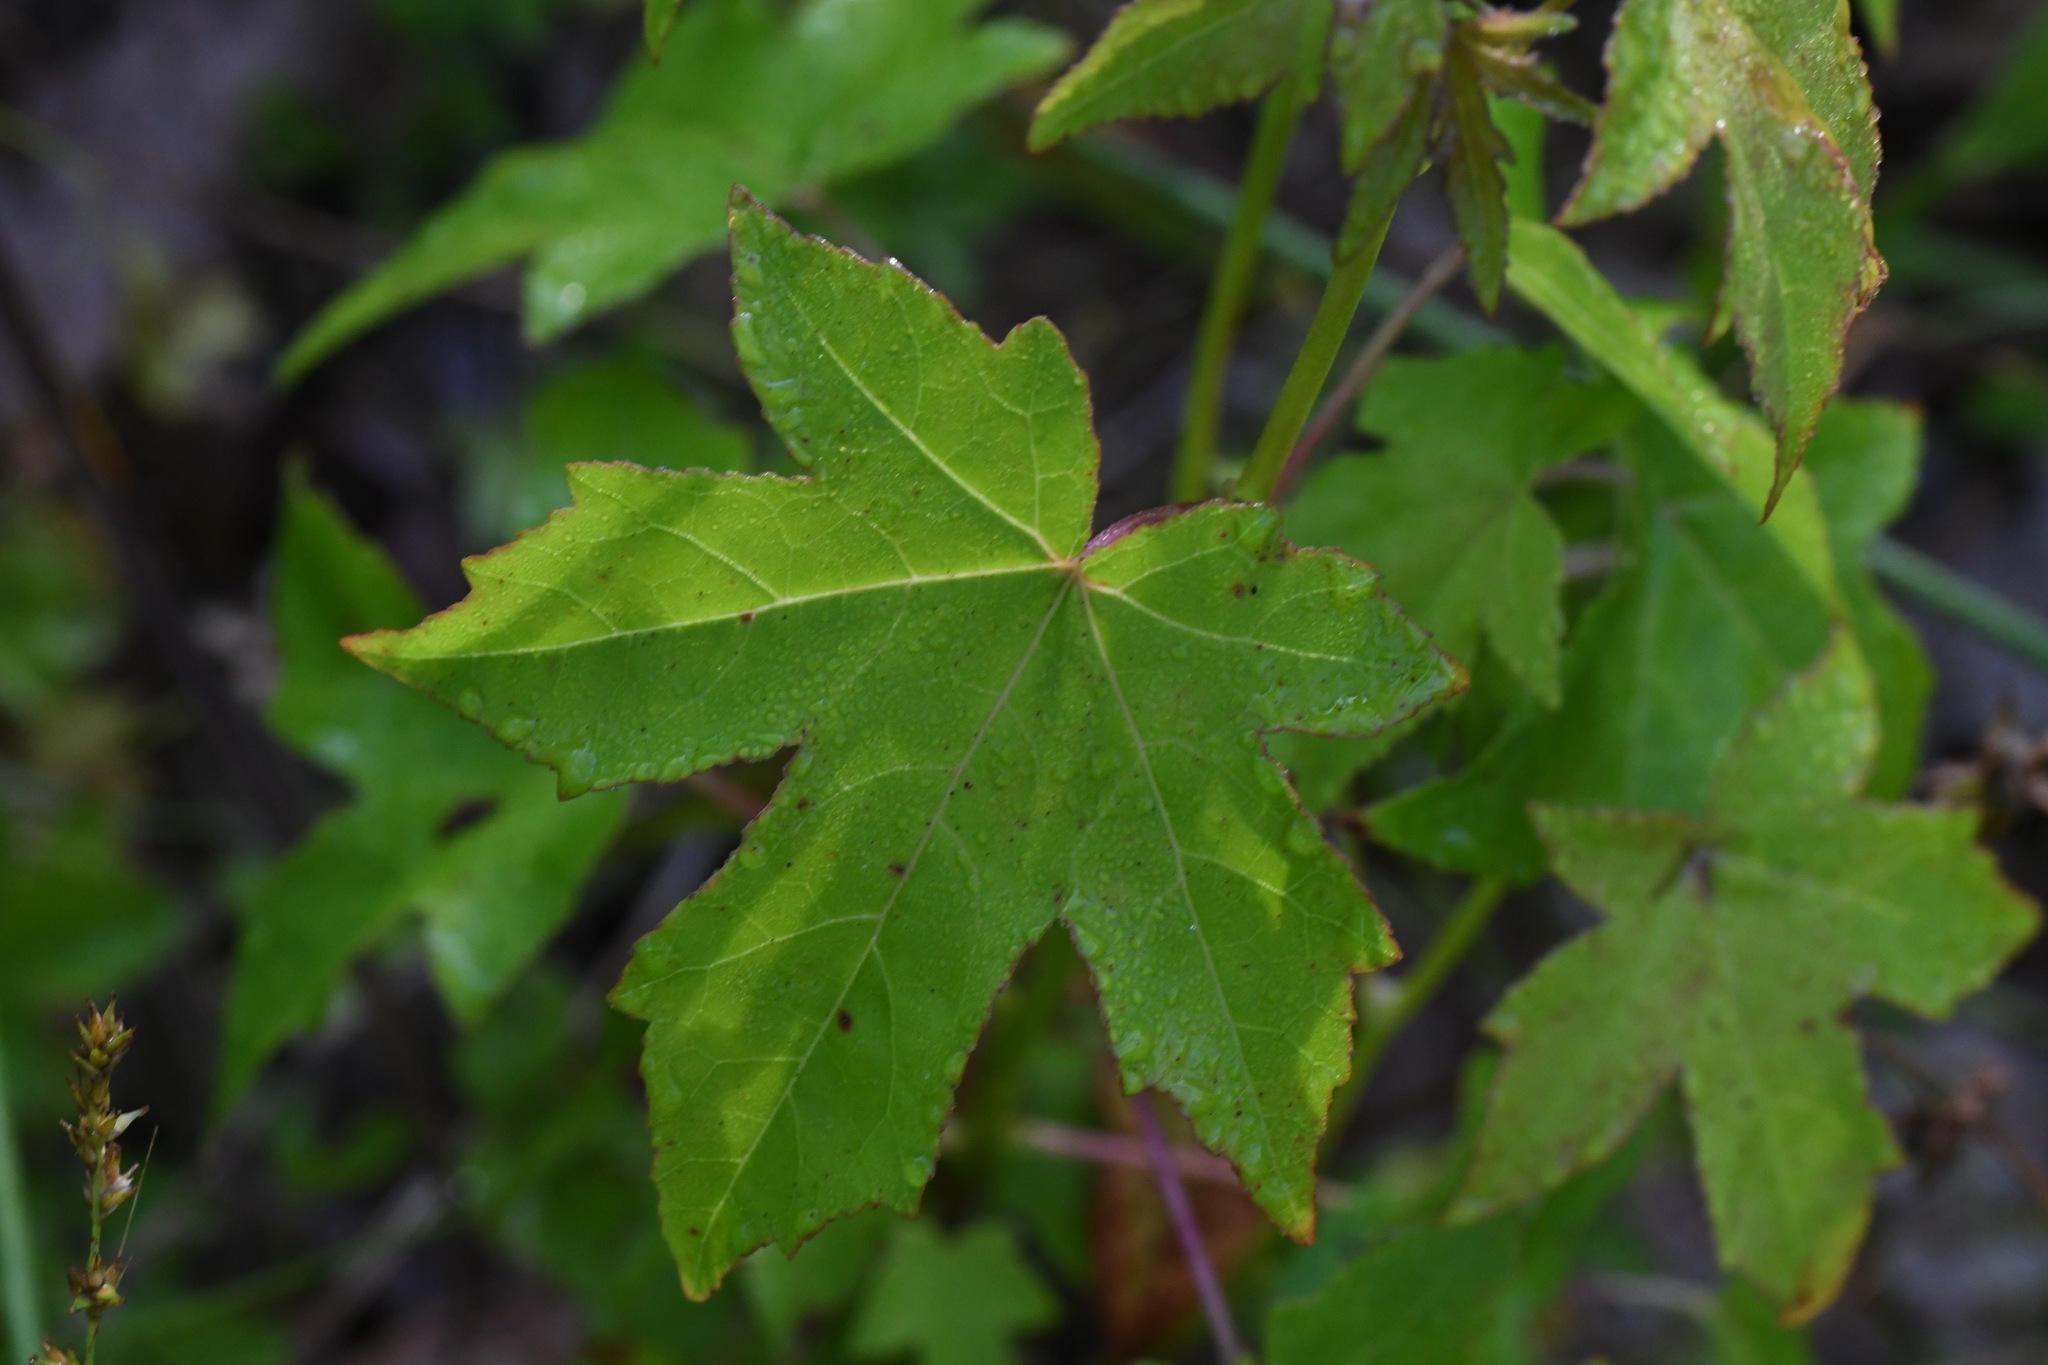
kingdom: Plantae
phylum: Tracheophyta
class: Magnoliopsida
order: Saxifragales
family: Altingiaceae
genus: Liquidambar
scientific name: Liquidambar styraciflua
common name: Sweet gum
